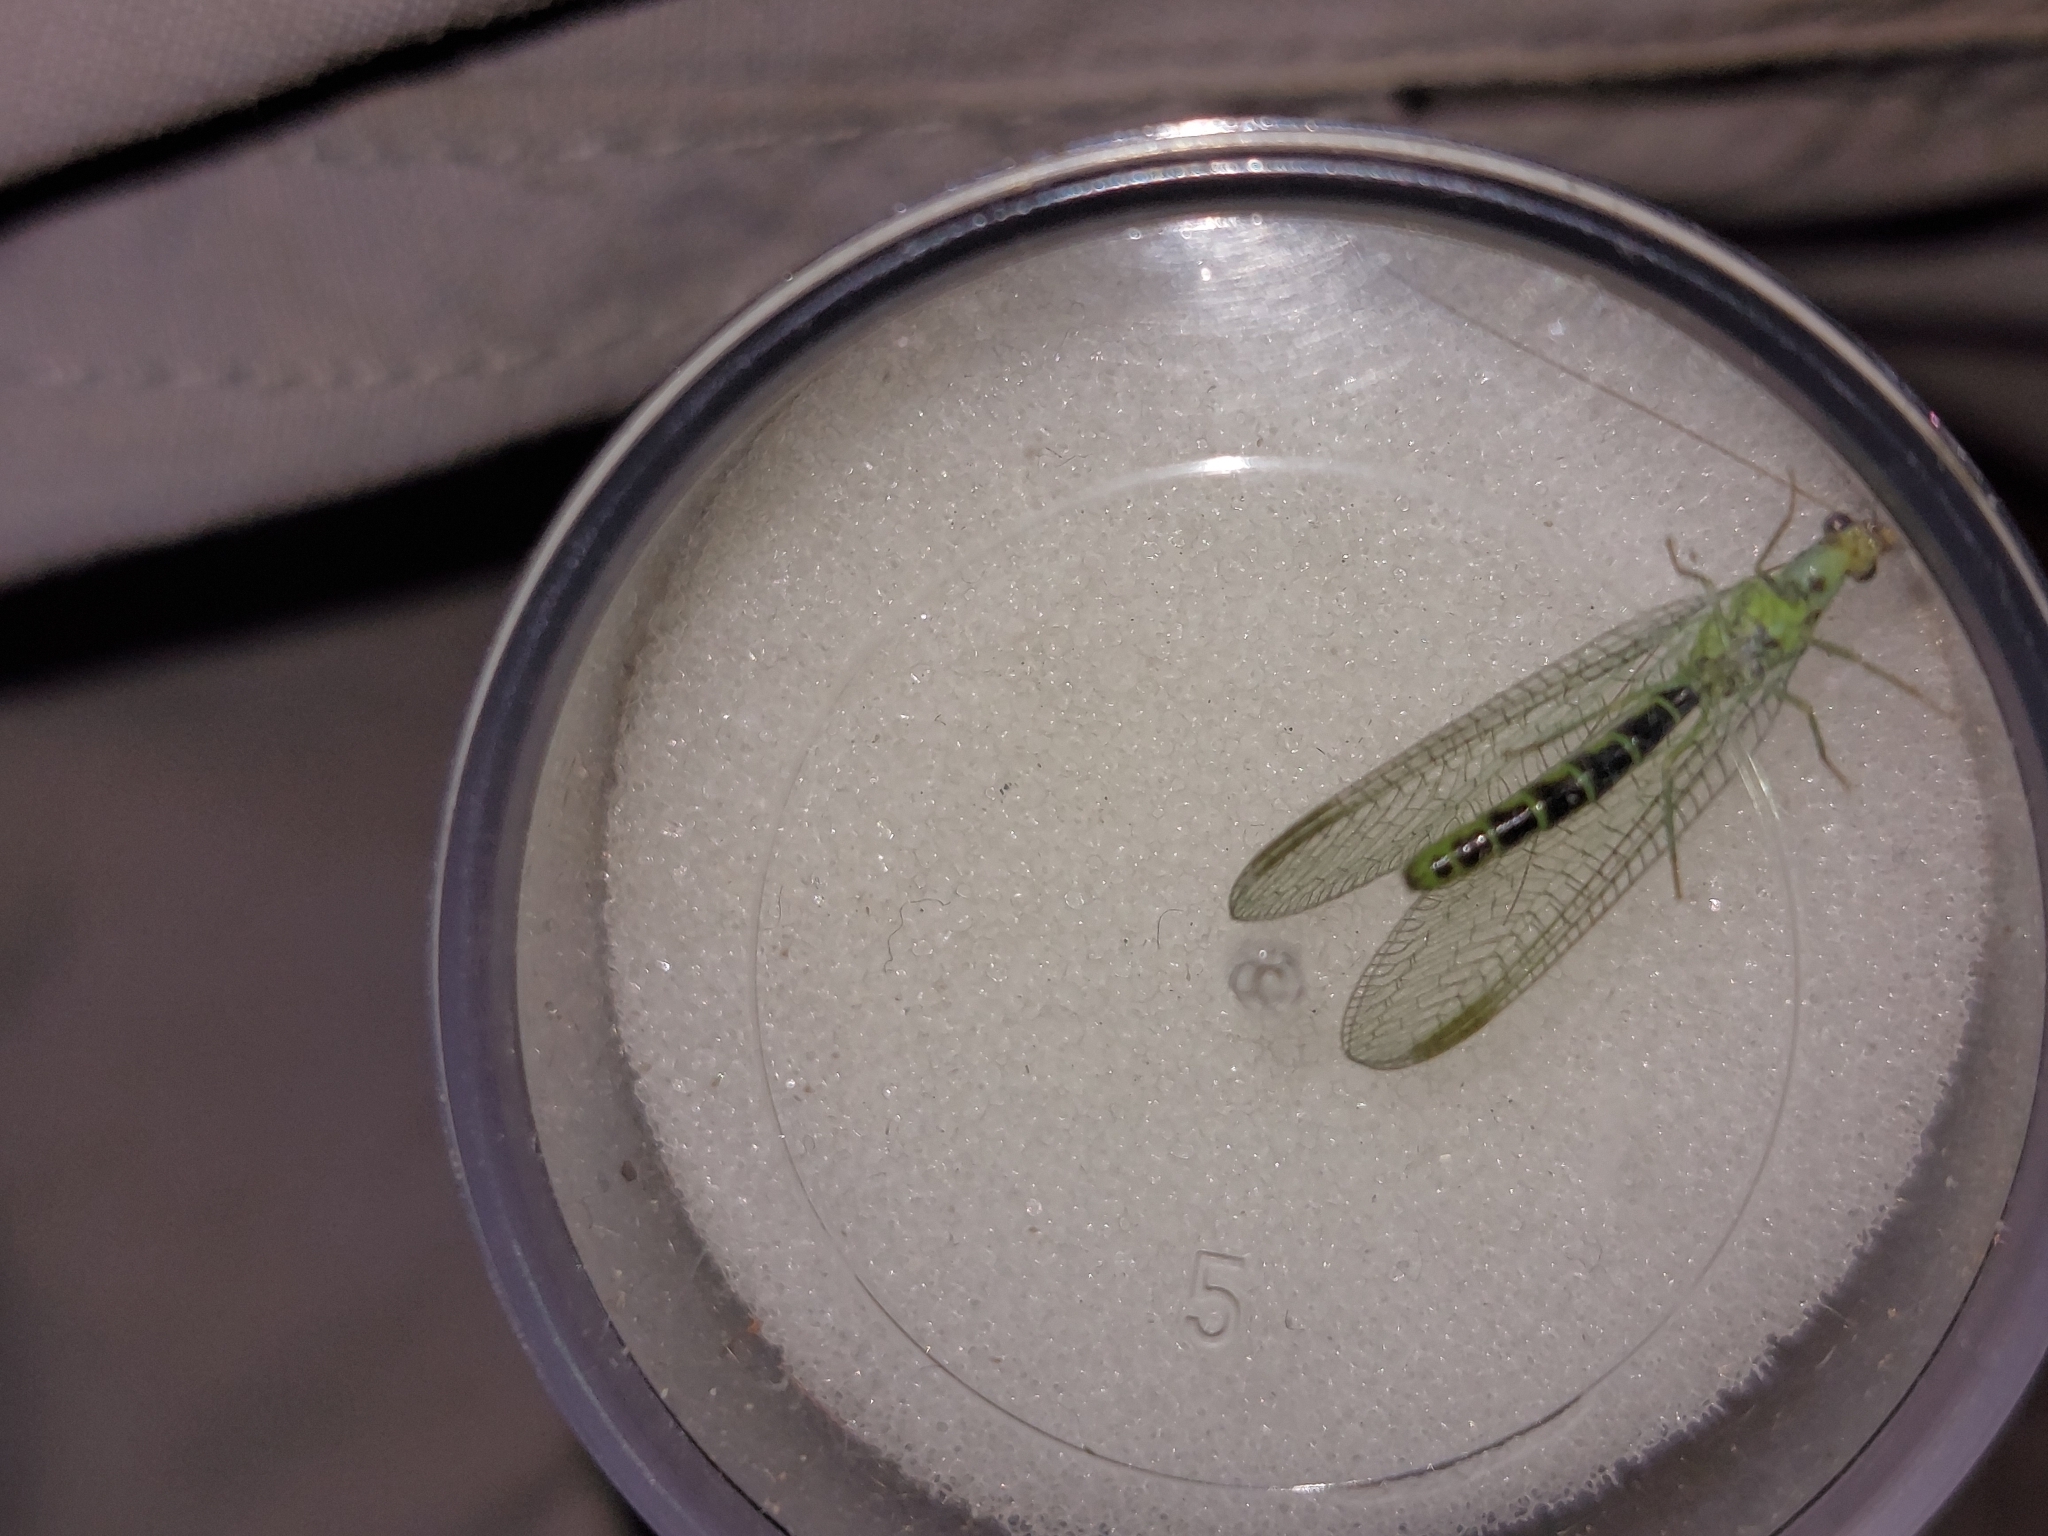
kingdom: Animalia
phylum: Arthropoda
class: Insecta
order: Neuroptera
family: Chrysopidae
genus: Chrysopa
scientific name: Chrysopa dorsalis
